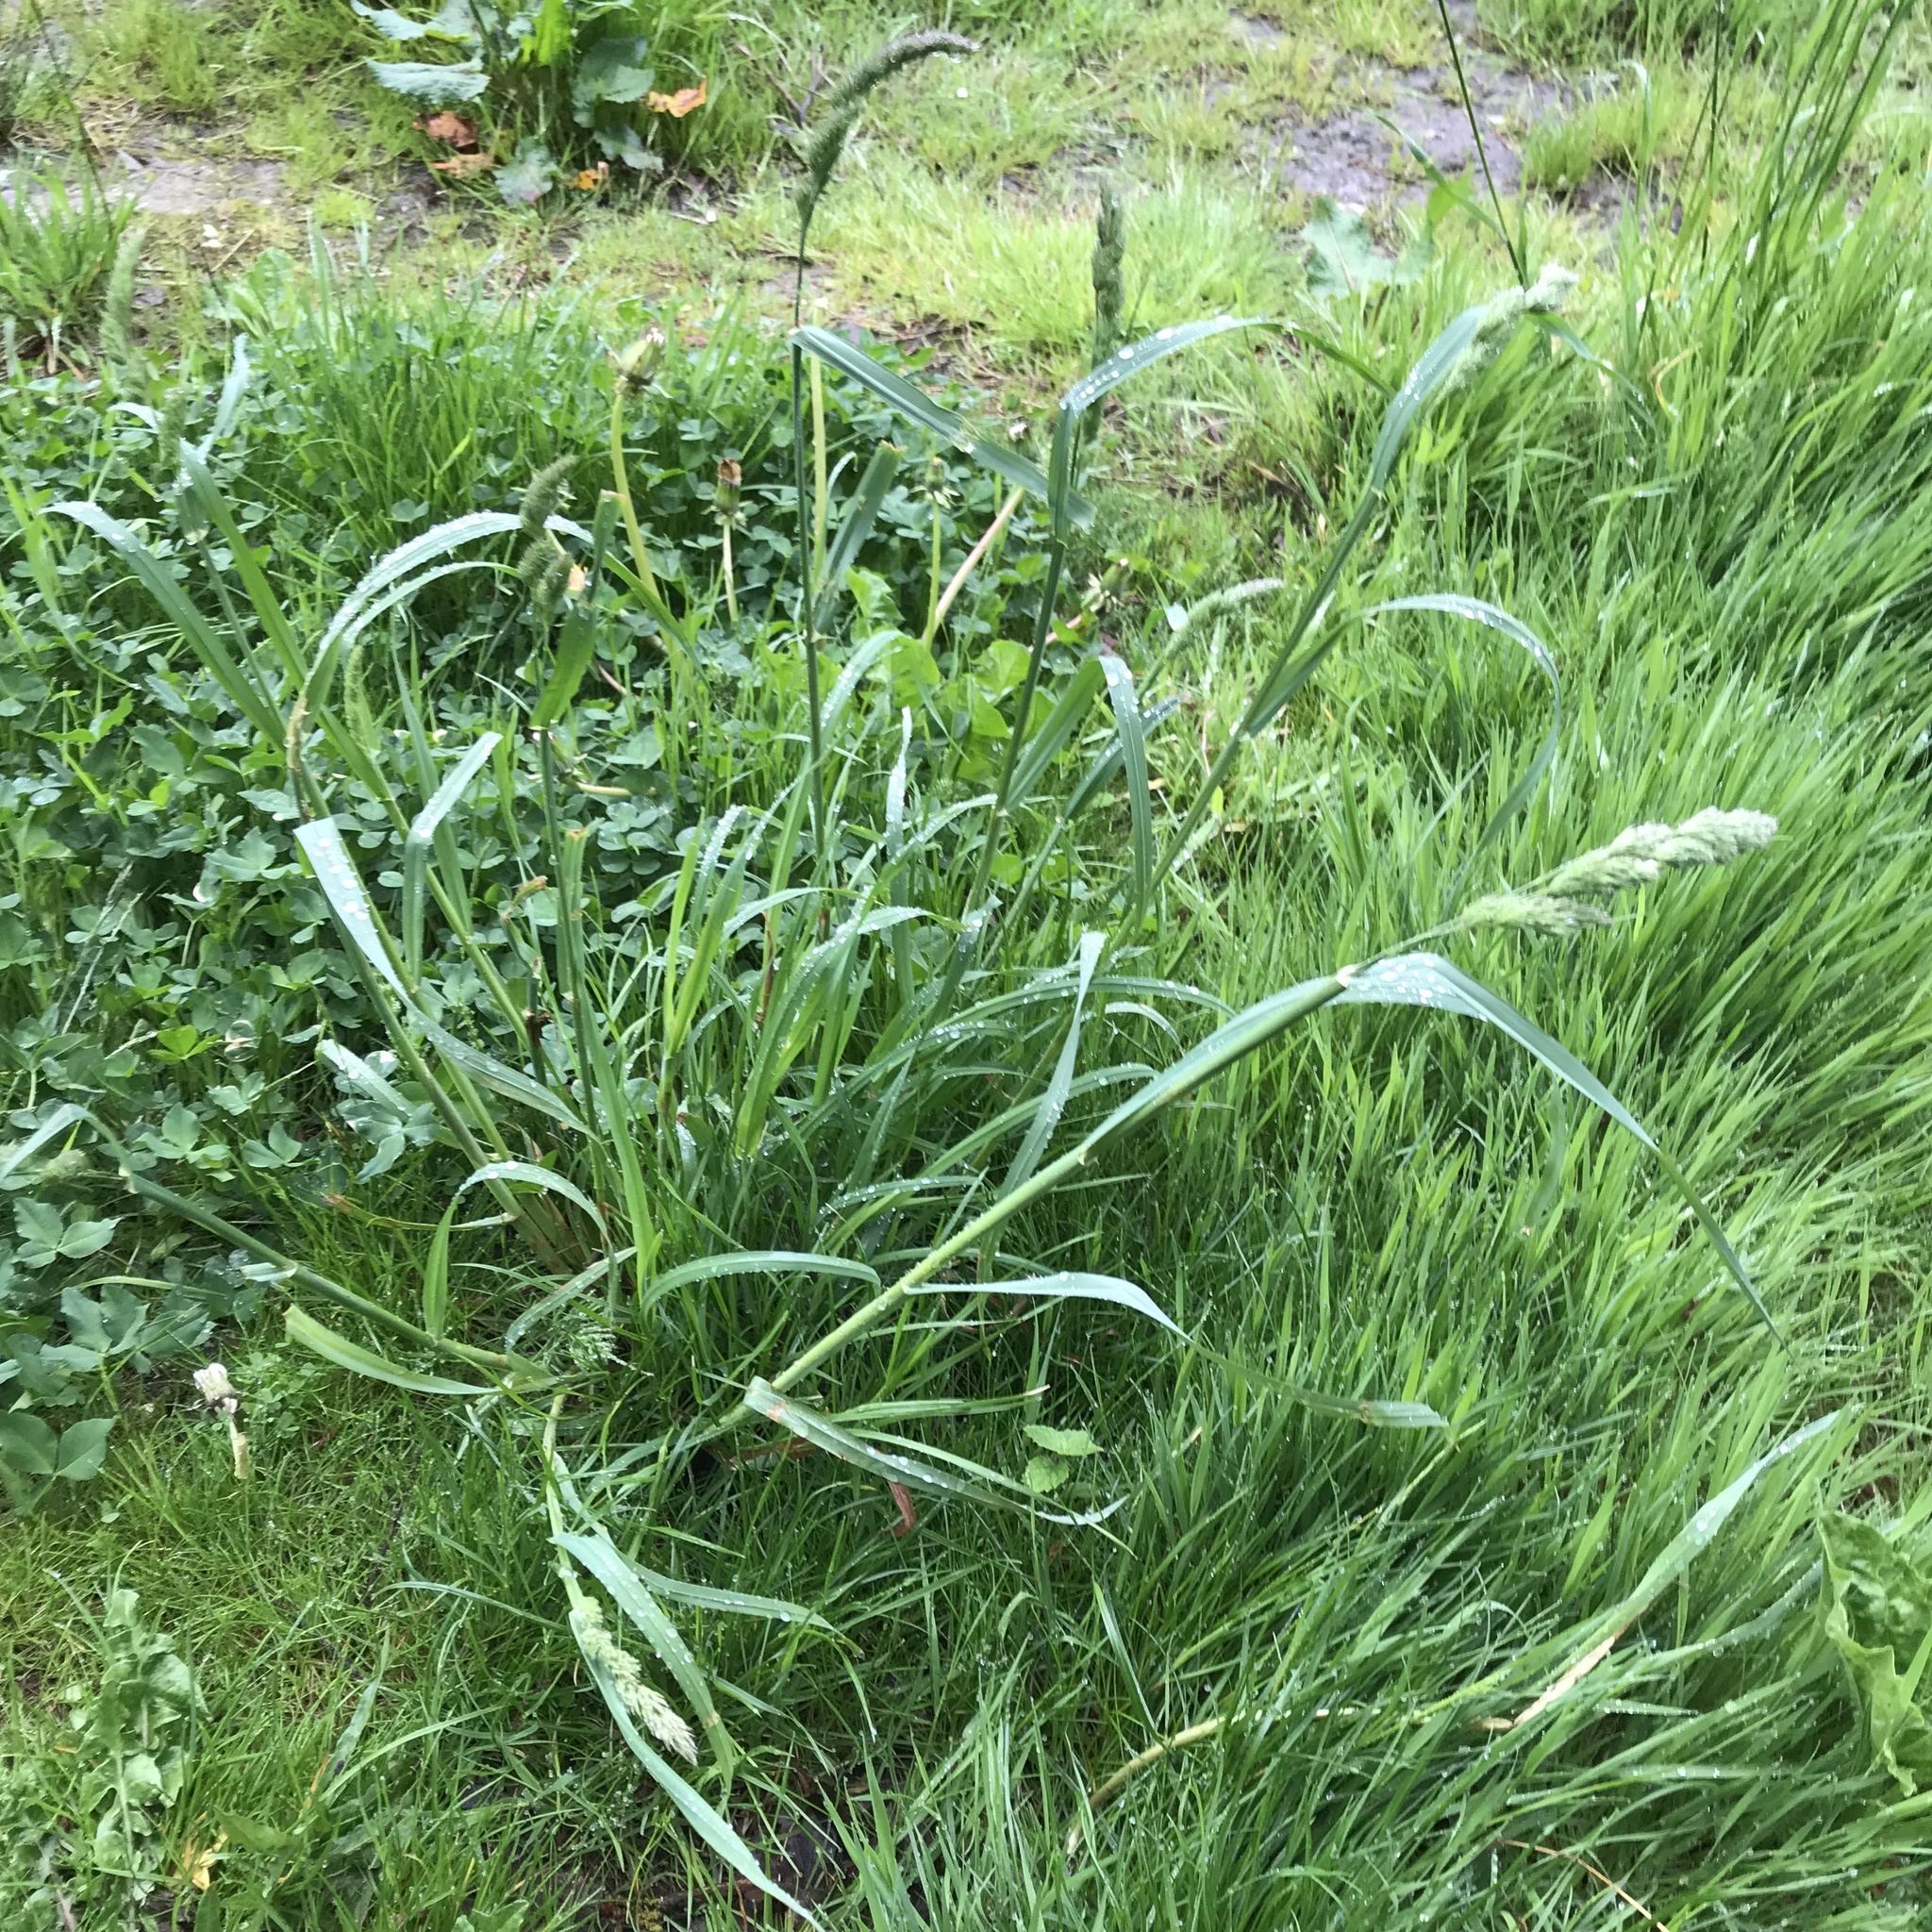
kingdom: Plantae
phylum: Tracheophyta
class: Liliopsida
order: Poales
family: Poaceae
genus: Dactylis
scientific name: Dactylis glomerata
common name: Orchardgrass
